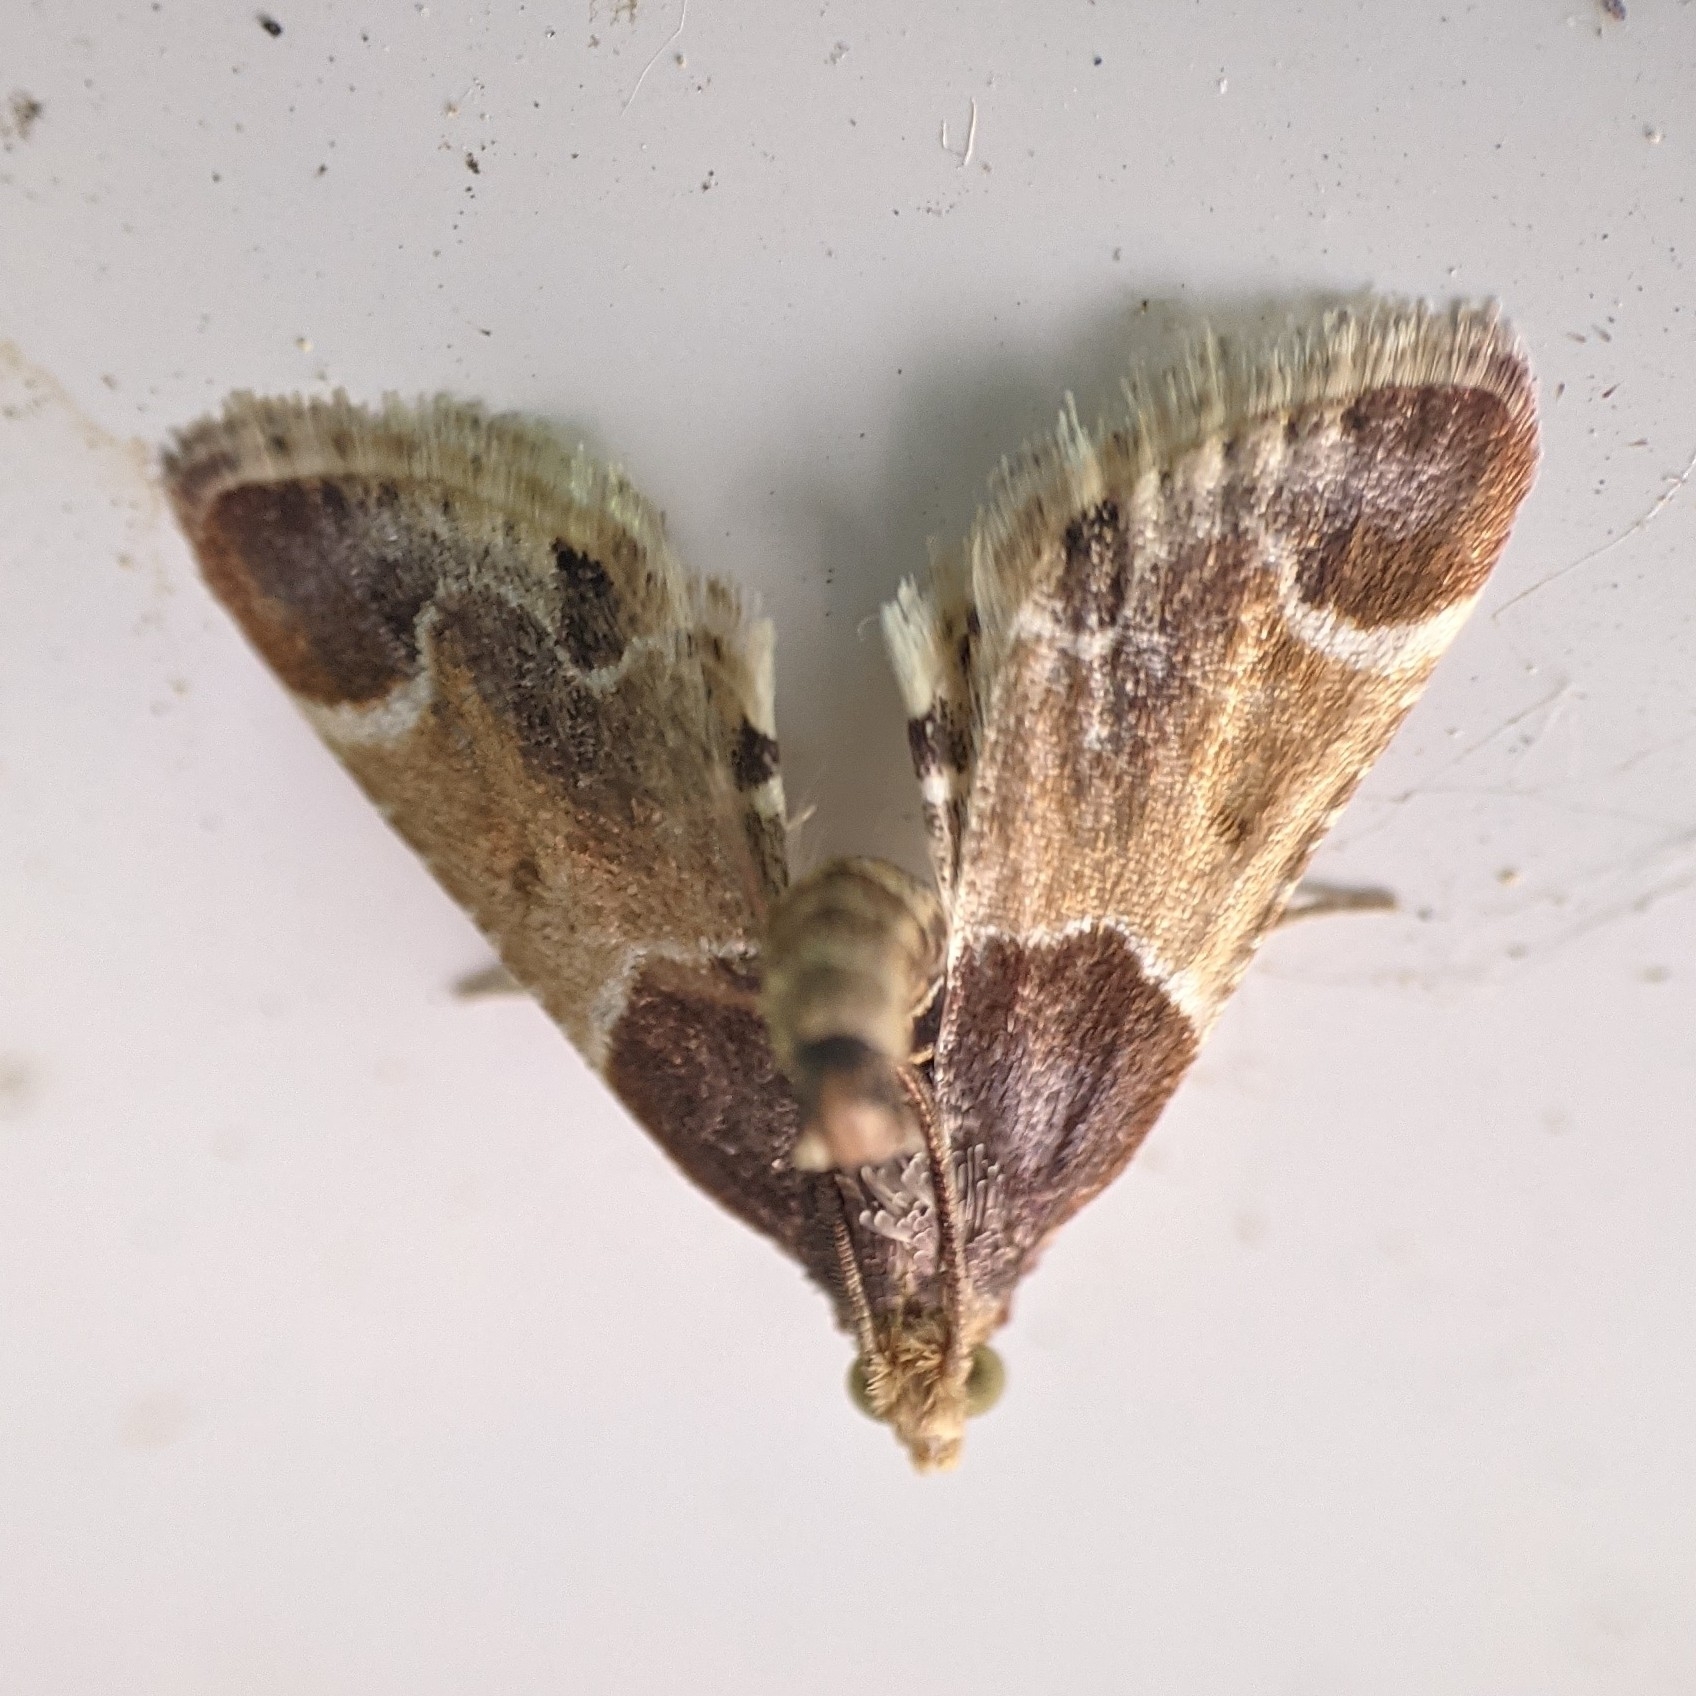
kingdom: Animalia
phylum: Arthropoda
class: Insecta
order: Lepidoptera
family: Pyralidae
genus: Pyralis
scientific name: Pyralis farinalis
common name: Meal moth
